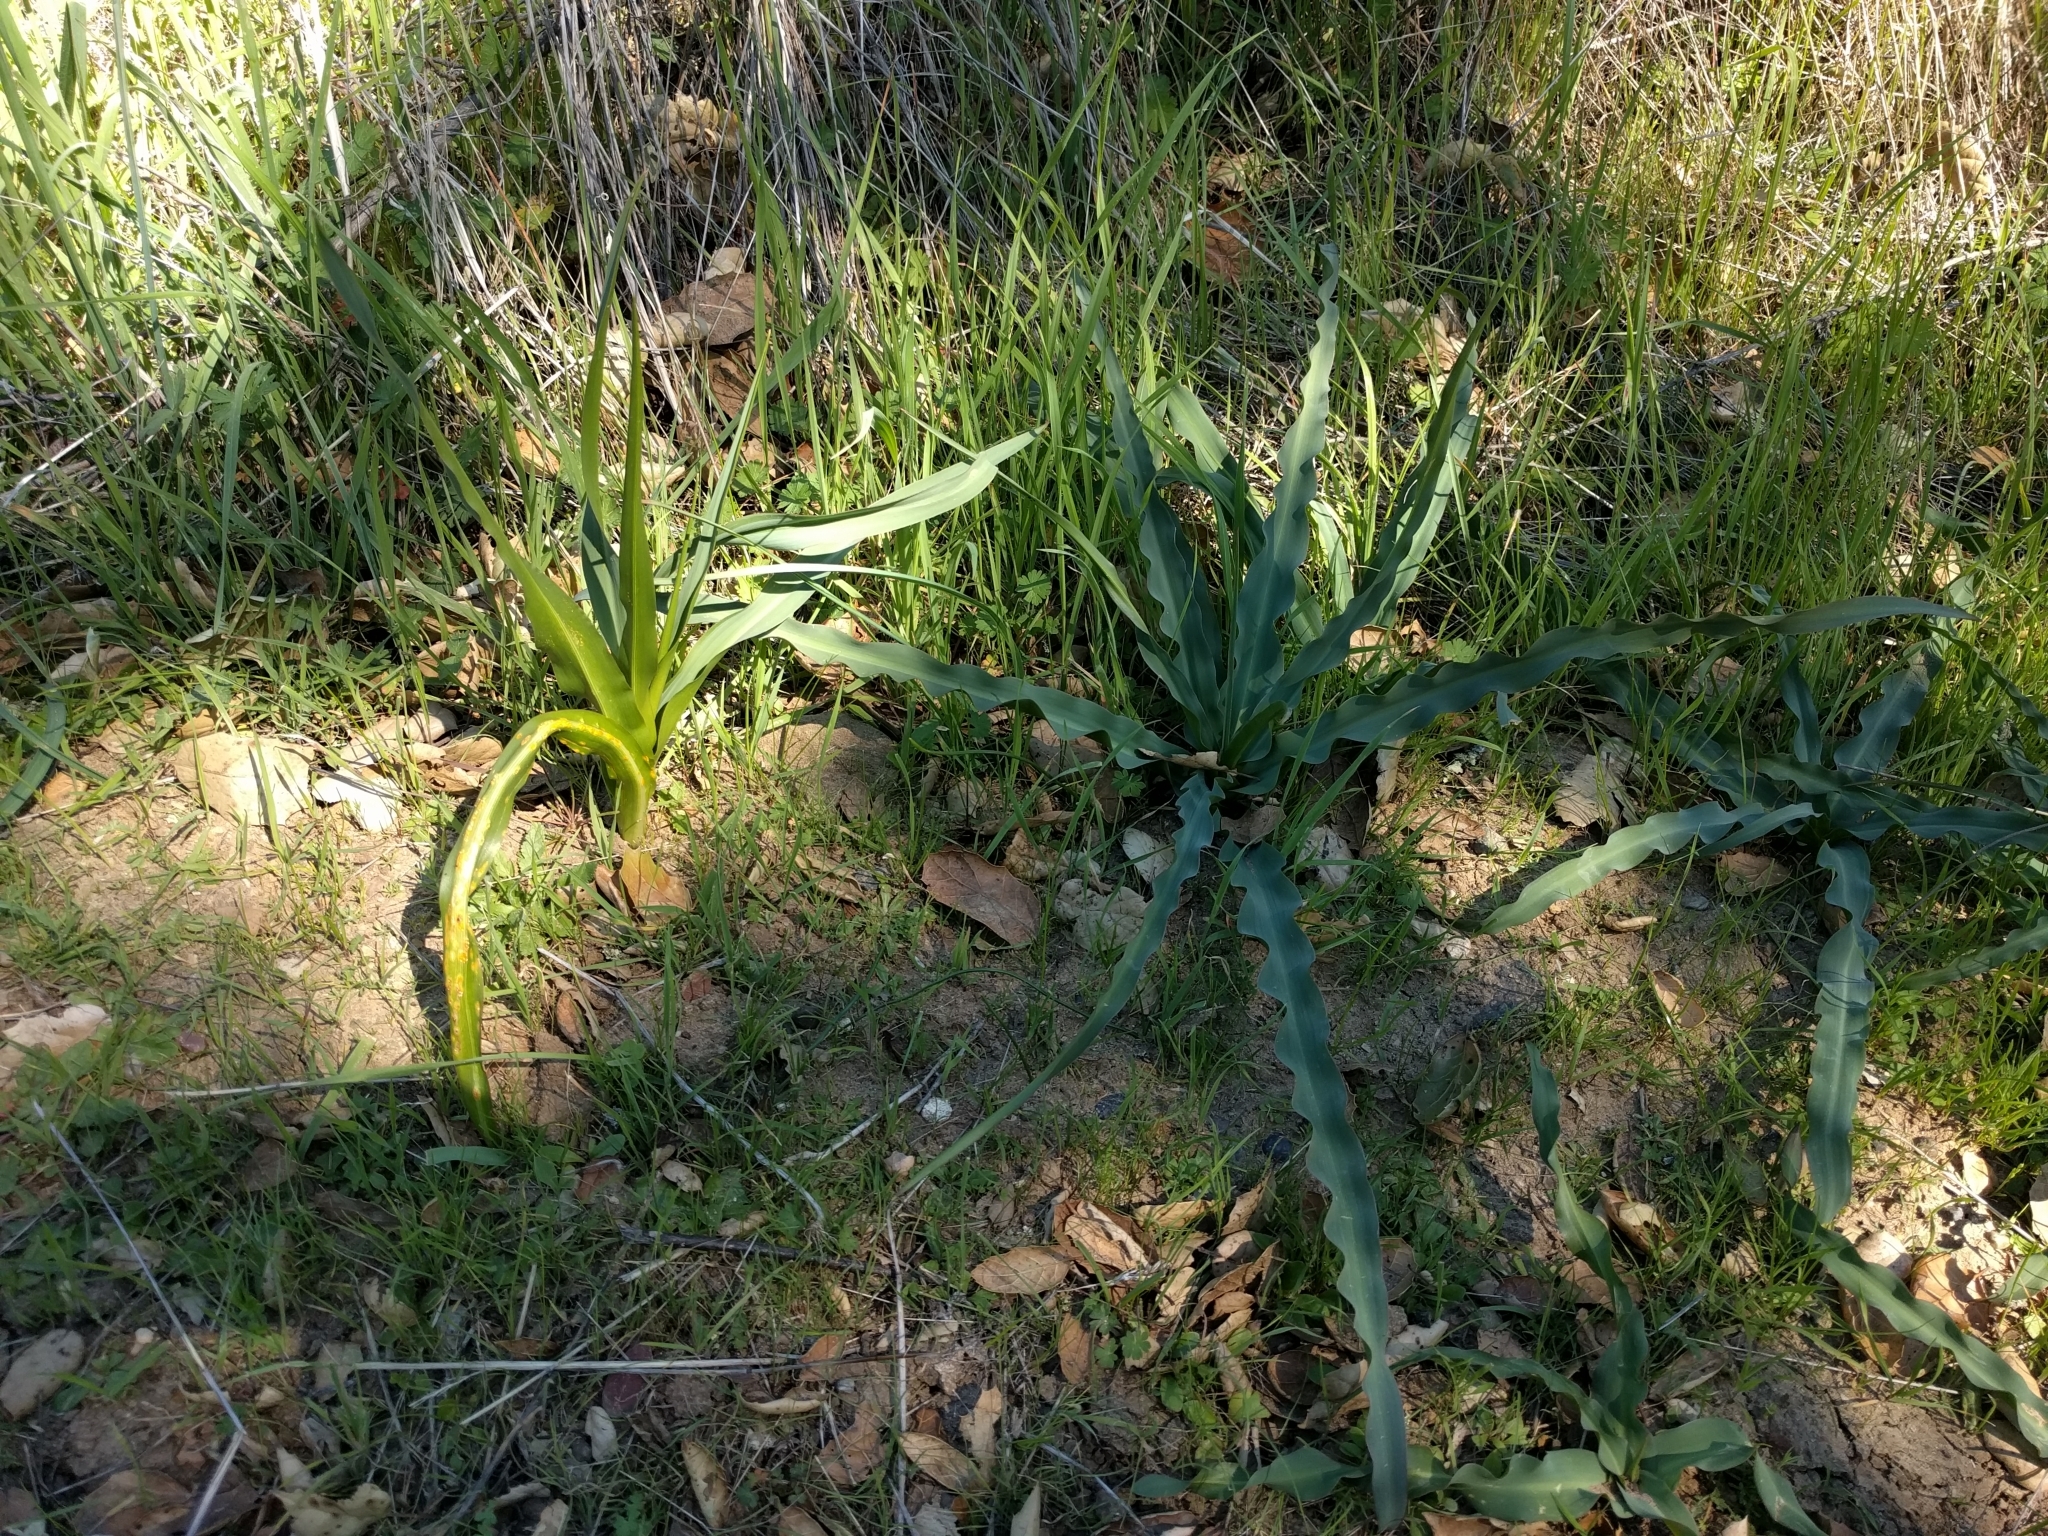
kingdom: Plantae
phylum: Tracheophyta
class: Liliopsida
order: Asparagales
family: Asparagaceae
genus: Chlorogalum
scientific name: Chlorogalum pomeridianum
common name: Amole
